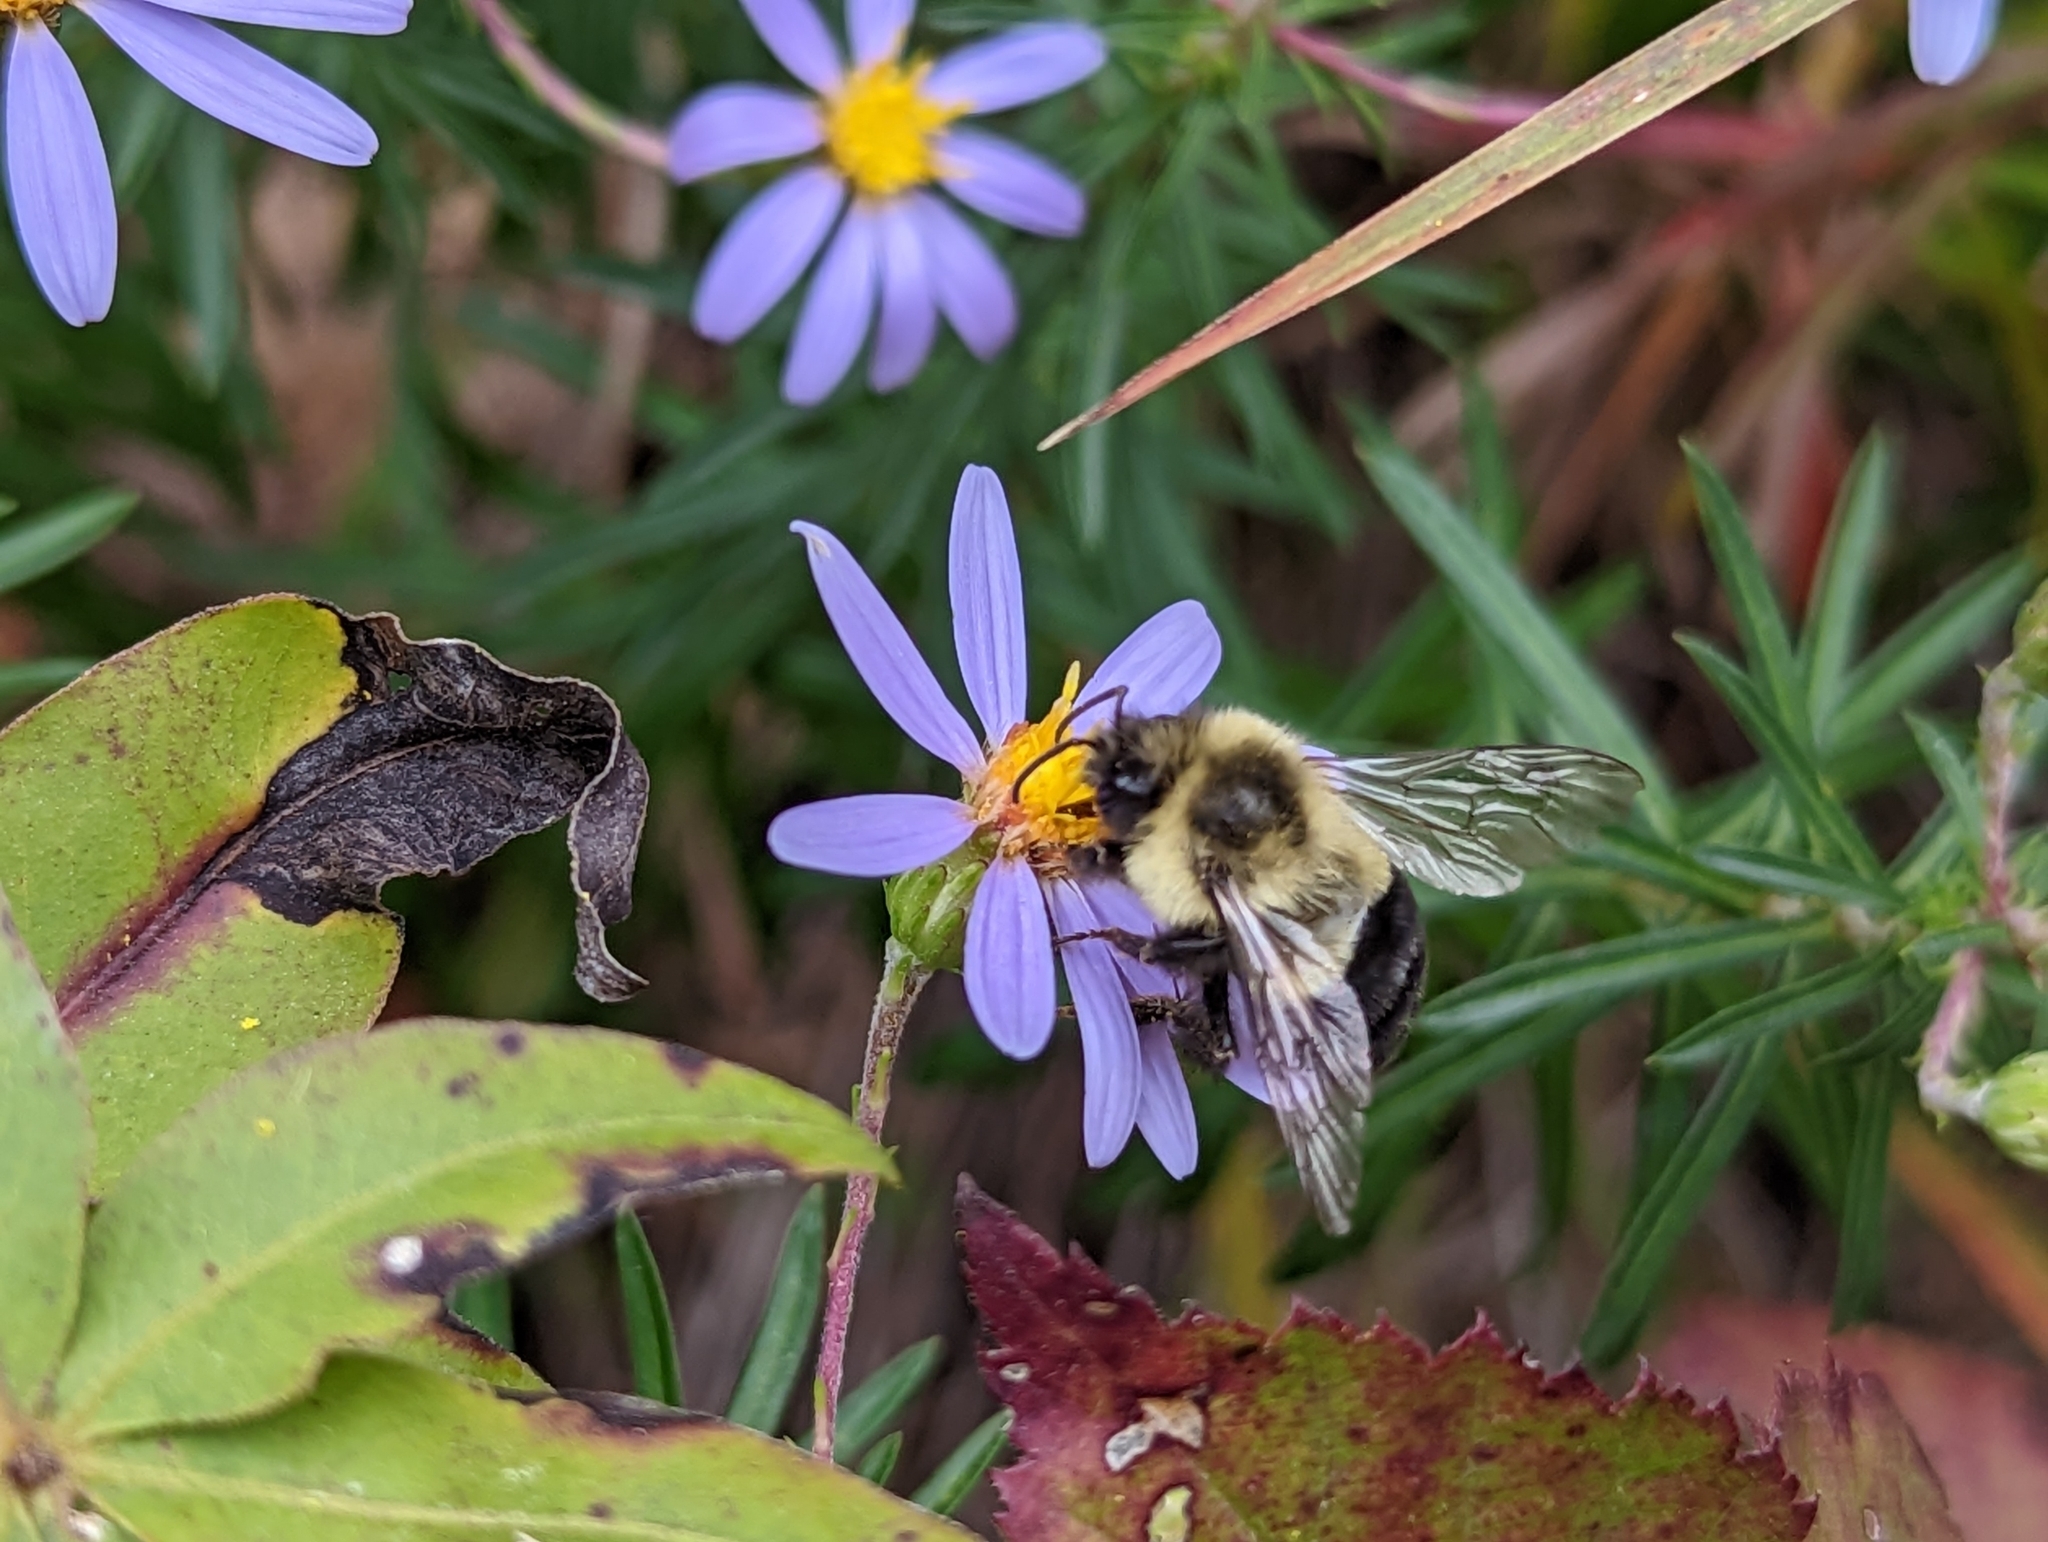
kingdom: Animalia
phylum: Arthropoda
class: Insecta
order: Hymenoptera
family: Apidae
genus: Bombus
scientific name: Bombus impatiens
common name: Common eastern bumble bee
